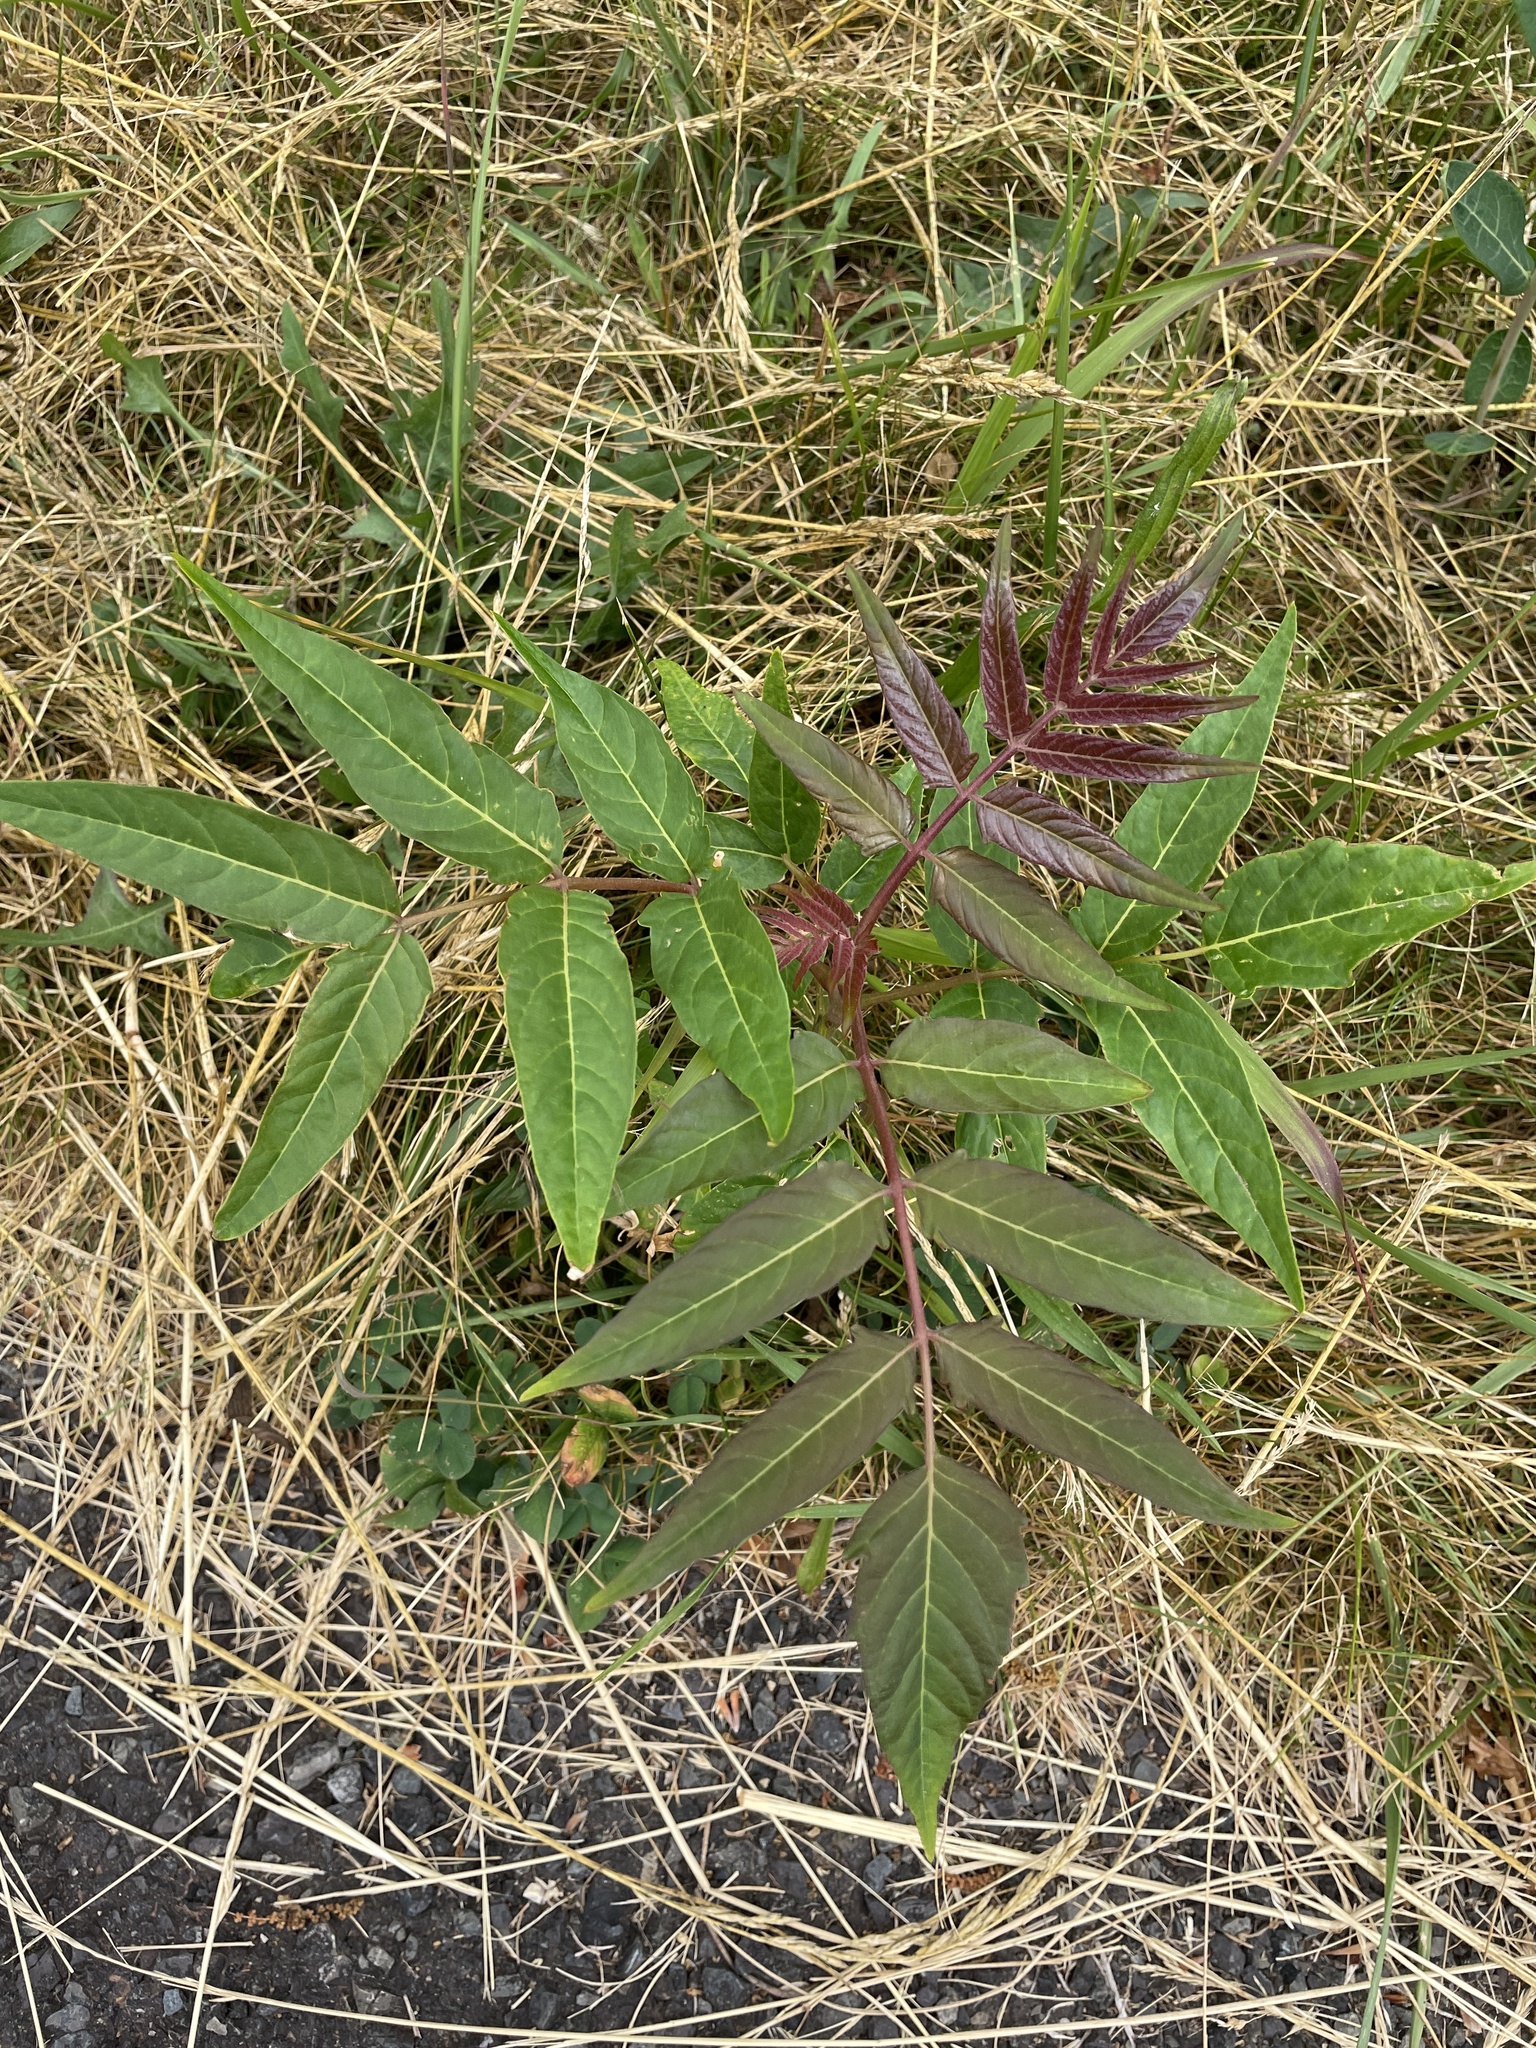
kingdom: Plantae
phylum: Tracheophyta
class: Magnoliopsida
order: Sapindales
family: Simaroubaceae
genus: Ailanthus
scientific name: Ailanthus altissima
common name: Tree-of-heaven
